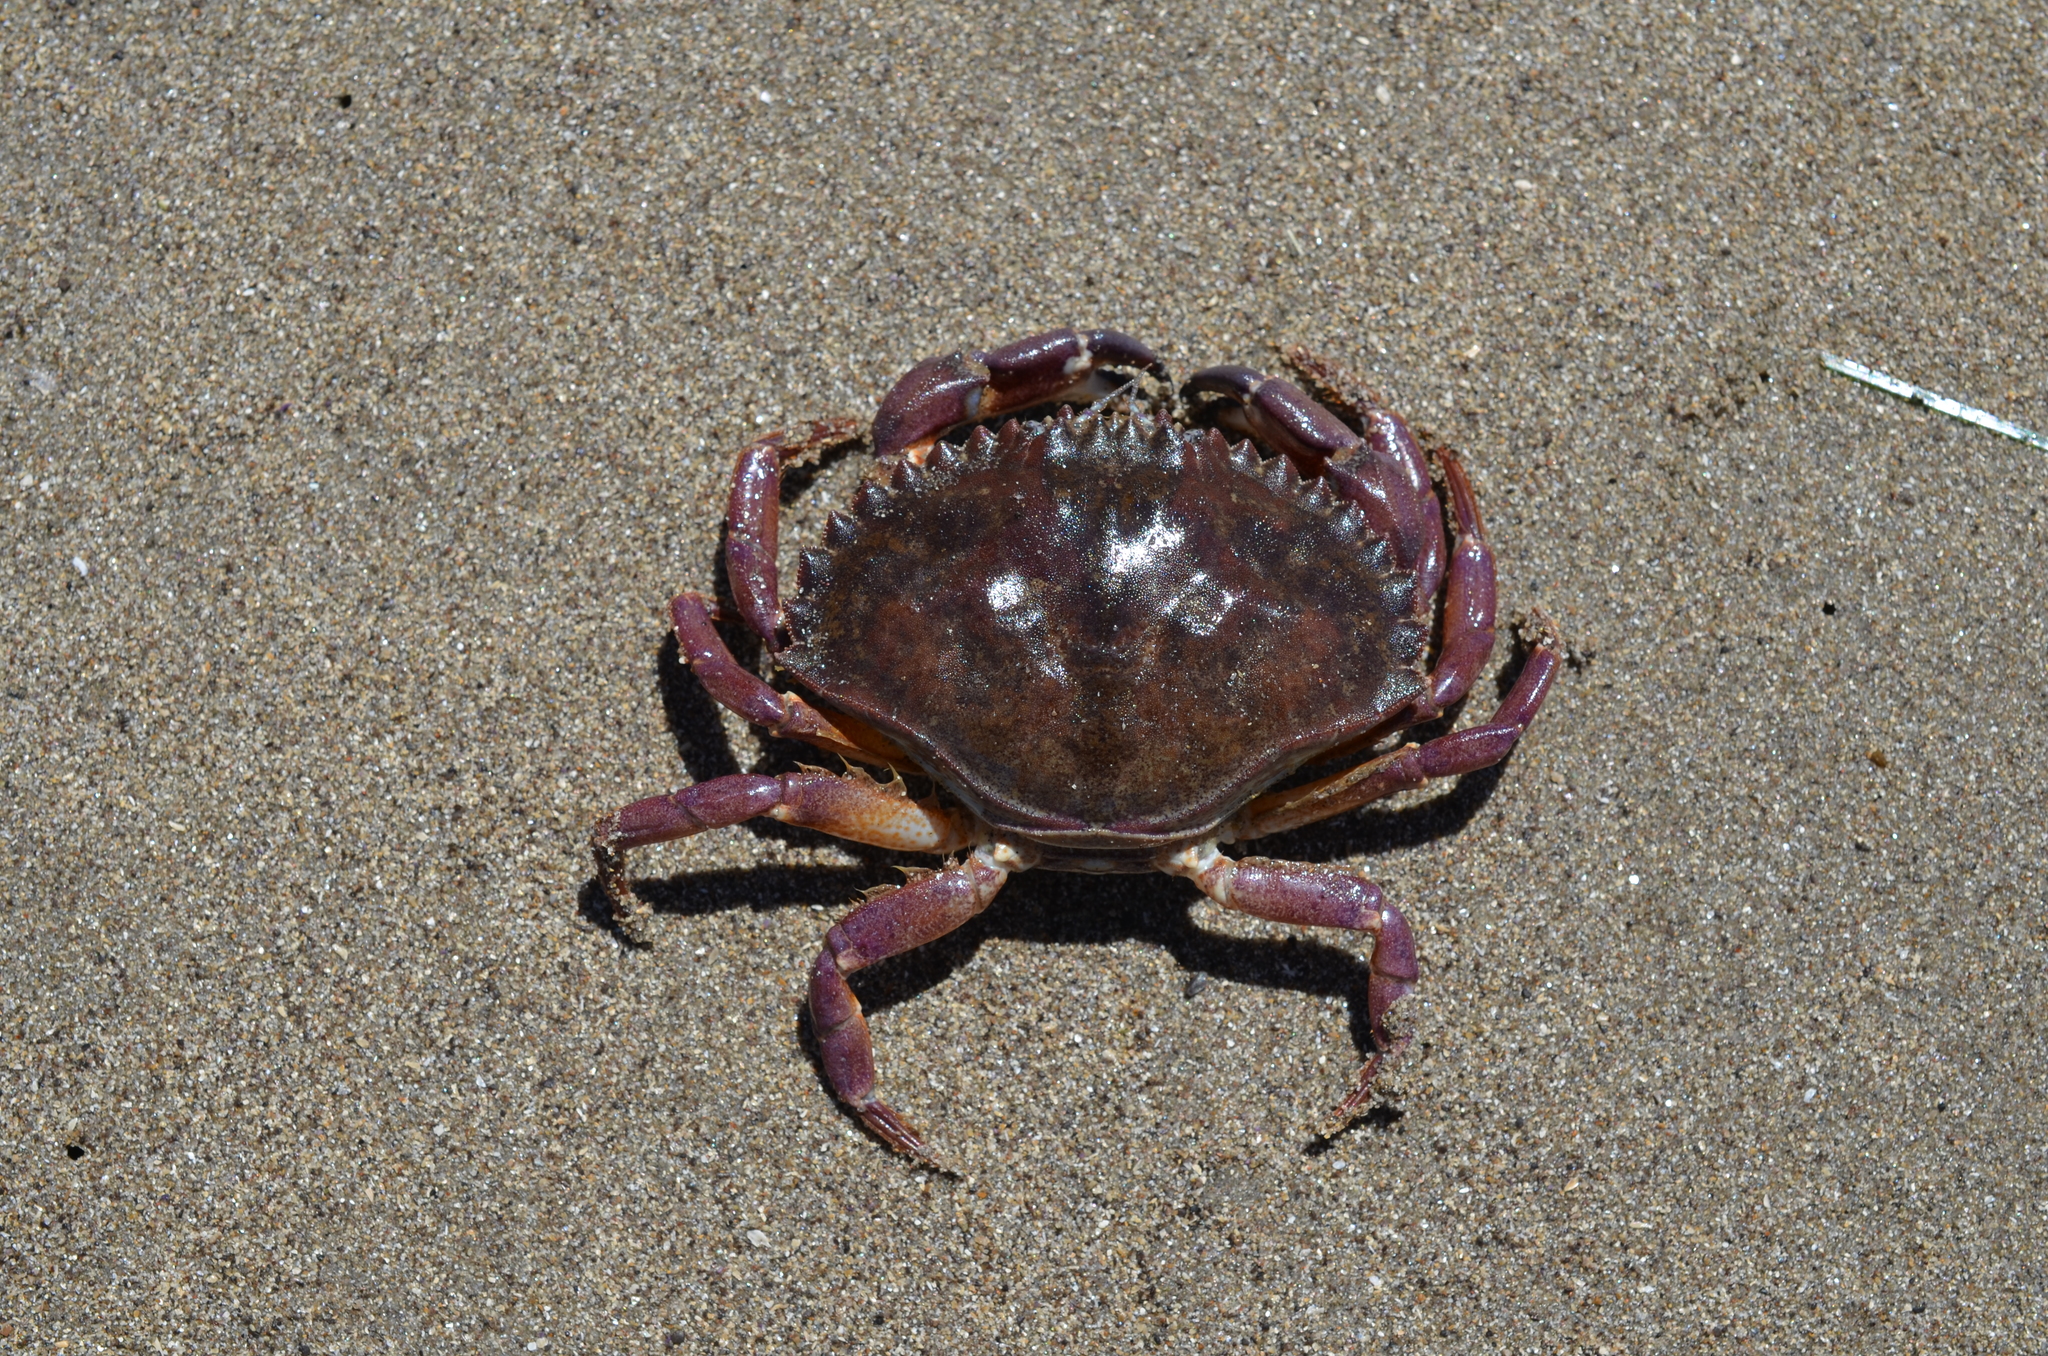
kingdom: Animalia
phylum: Arthropoda
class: Malacostraca
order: Decapoda
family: Cancridae
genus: Metacarcinus
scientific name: Metacarcinus anthonyi
